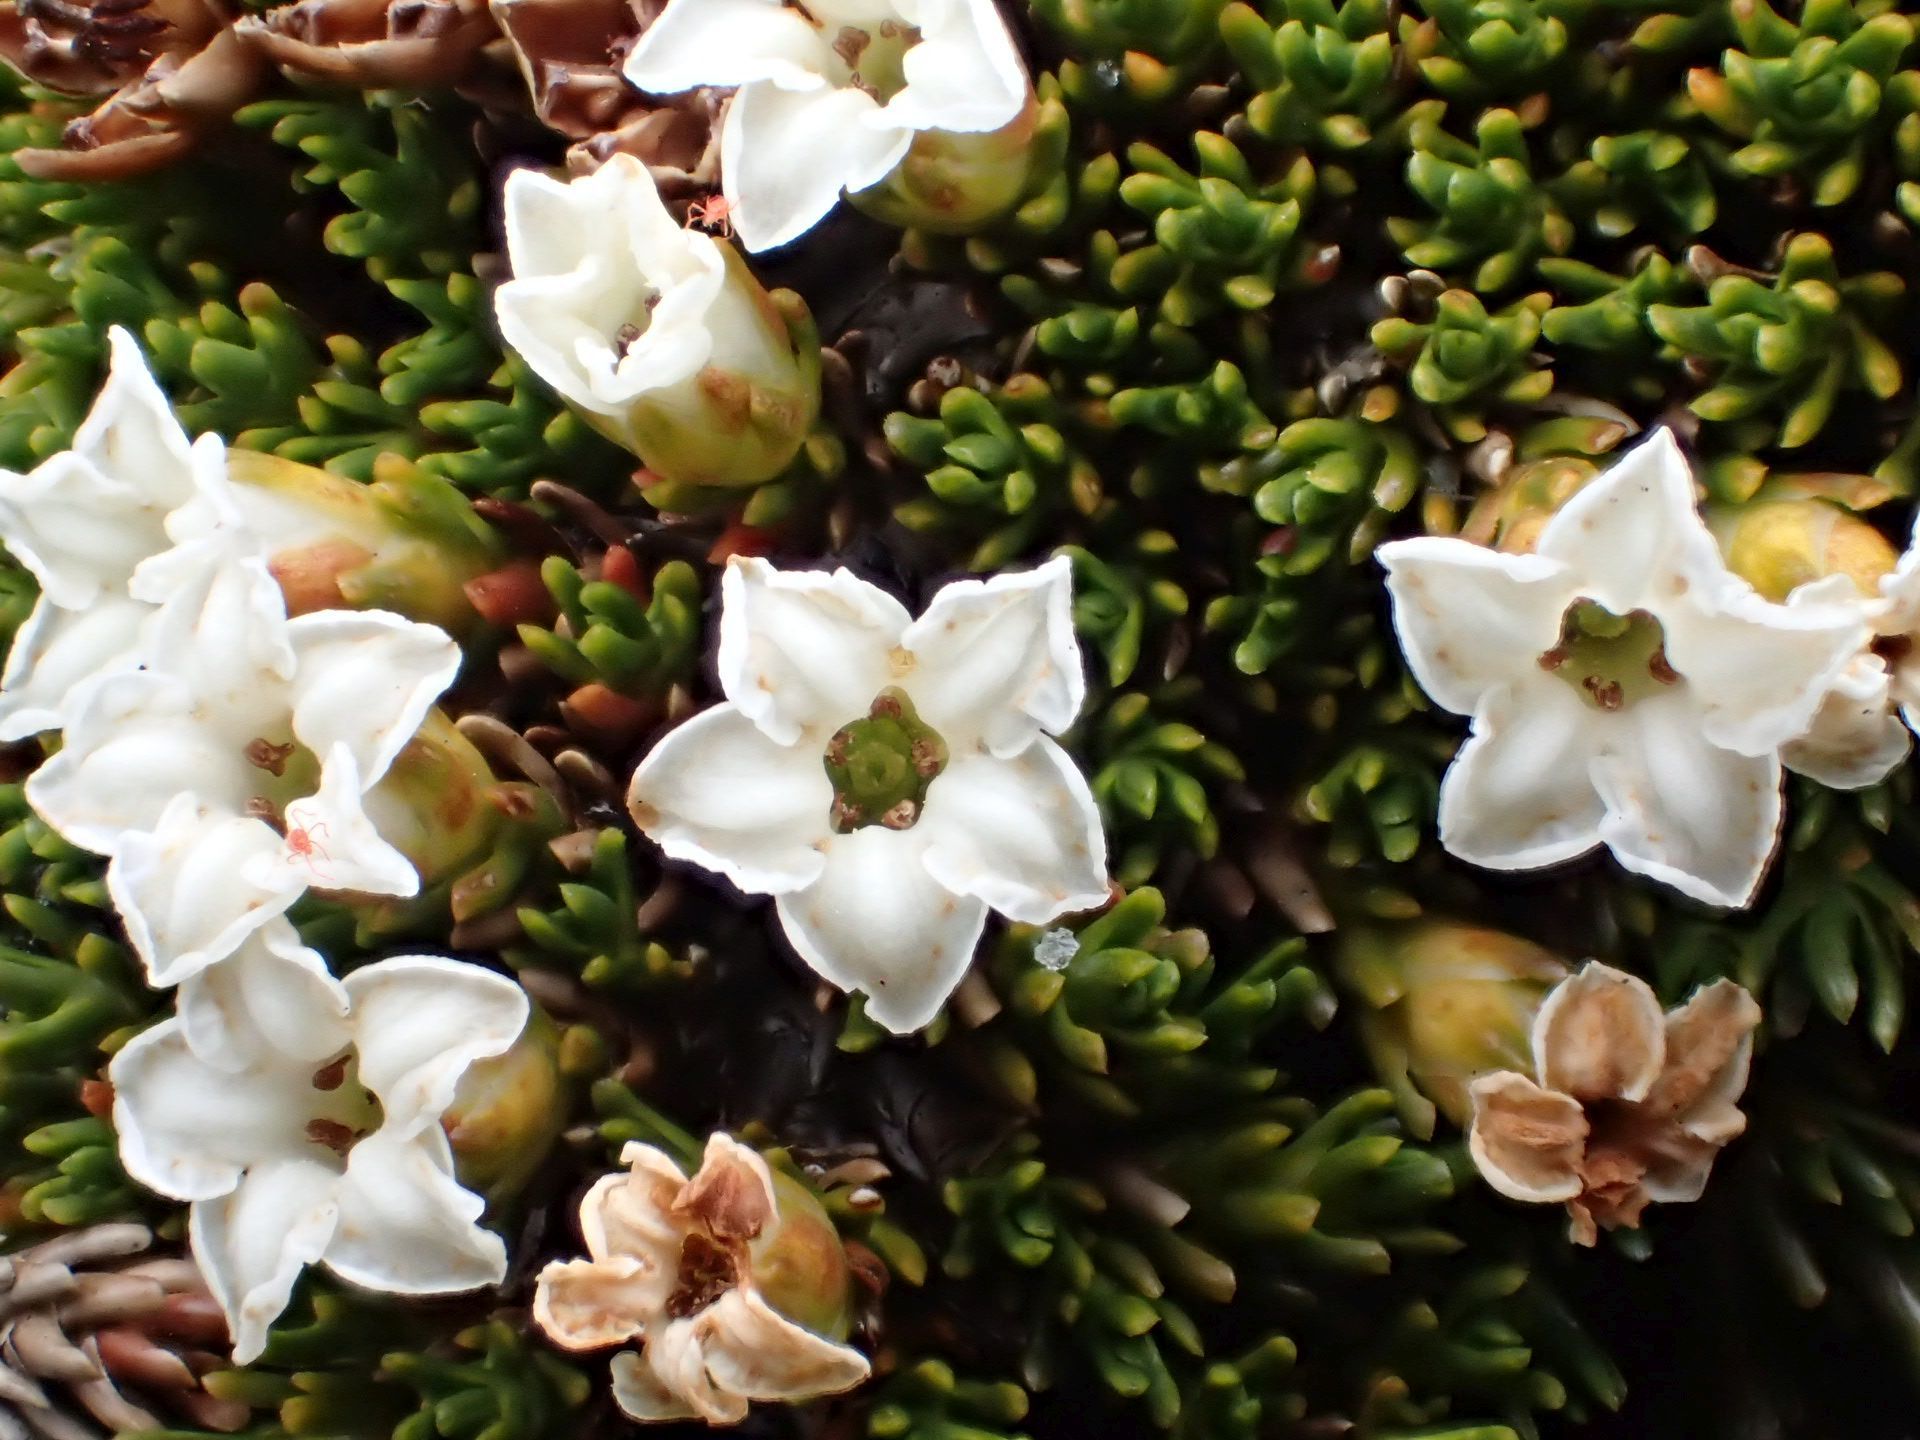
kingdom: Plantae
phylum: Tracheophyta
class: Magnoliopsida
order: Ericales
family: Ericaceae
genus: Dracophyllum
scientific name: Dracophyllum muscoides
